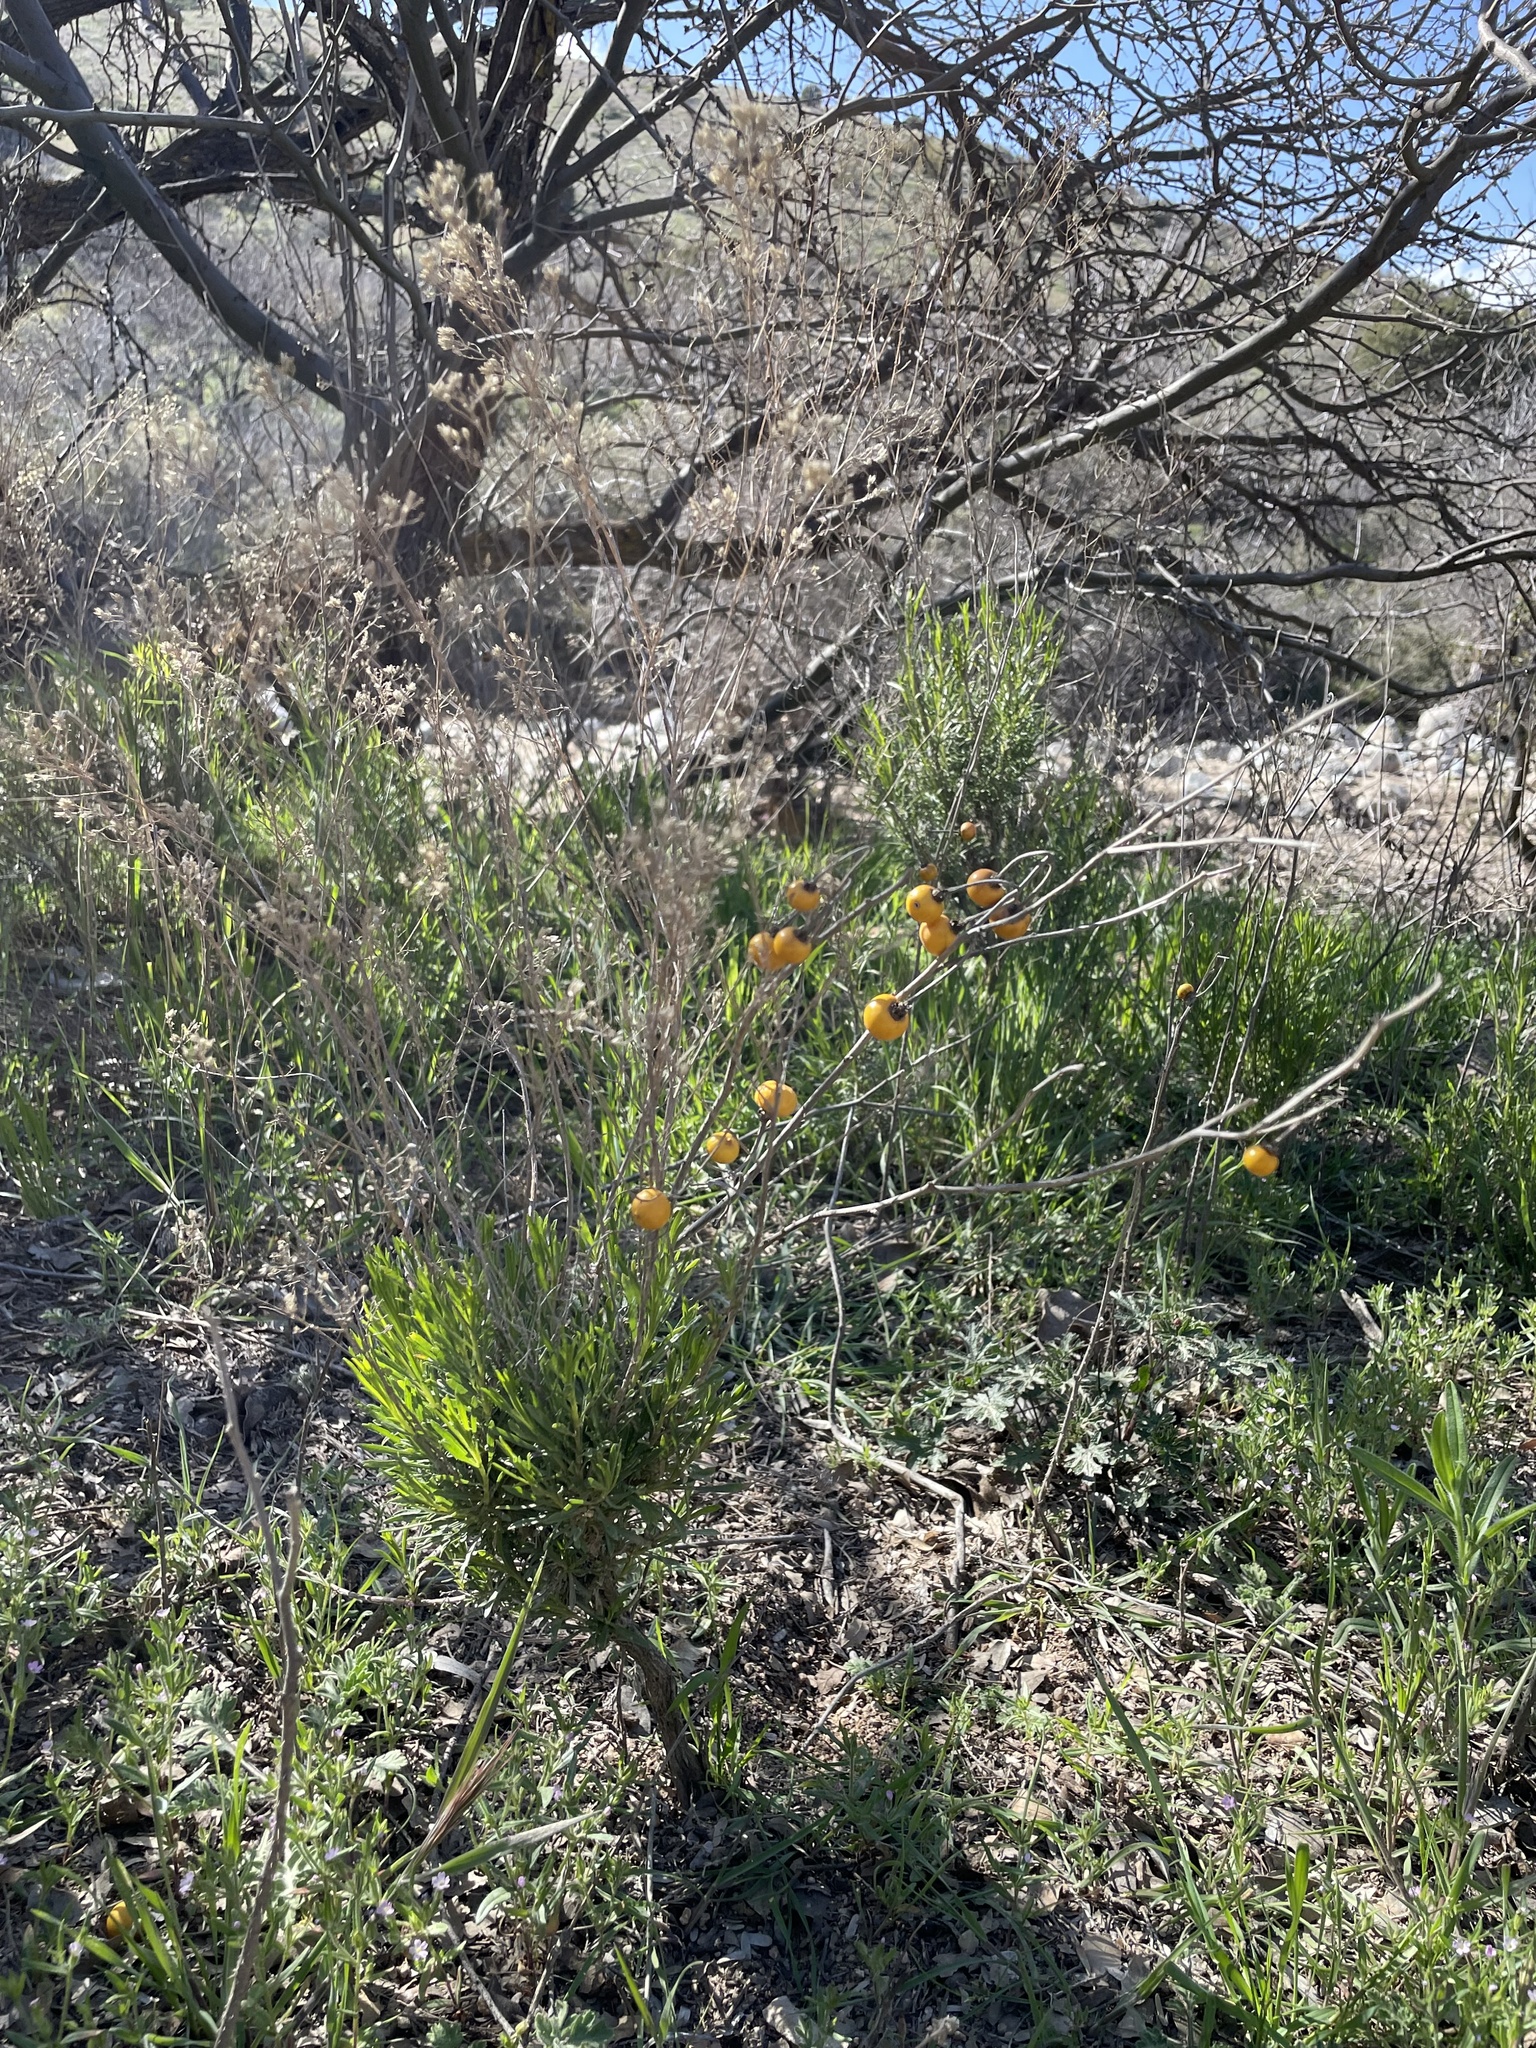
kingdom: Plantae
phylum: Tracheophyta
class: Magnoliopsida
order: Solanales
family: Solanaceae
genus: Solanum
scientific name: Solanum elaeagnifolium
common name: Silverleaf nightshade
